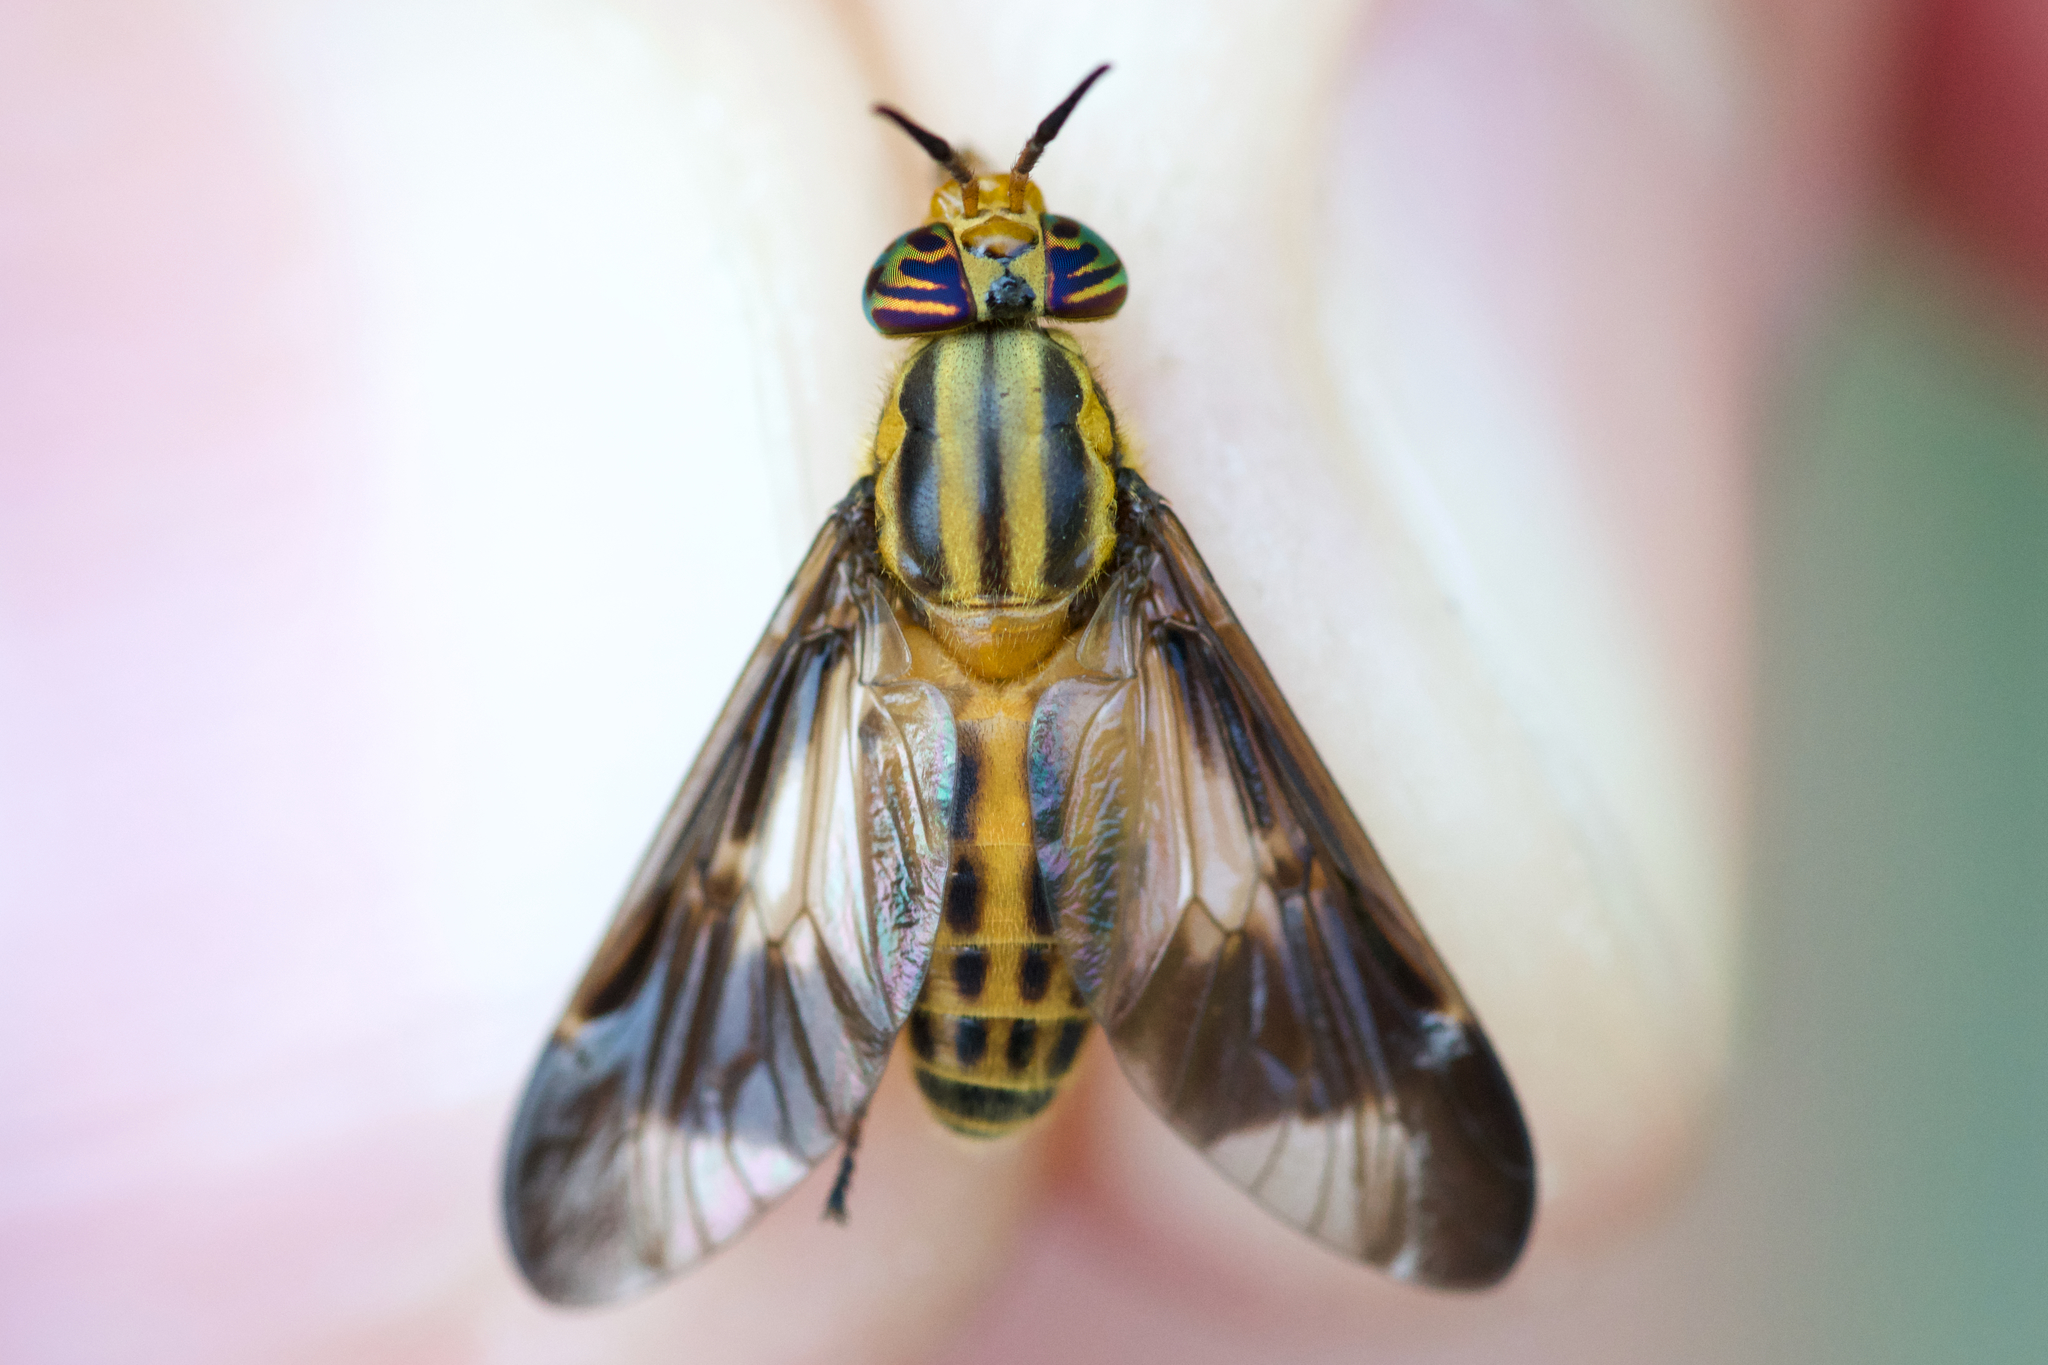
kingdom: Animalia
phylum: Arthropoda
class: Insecta
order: Diptera
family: Tabanidae
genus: Chrysops
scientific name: Chrysops vittatus
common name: Striped deer fly
